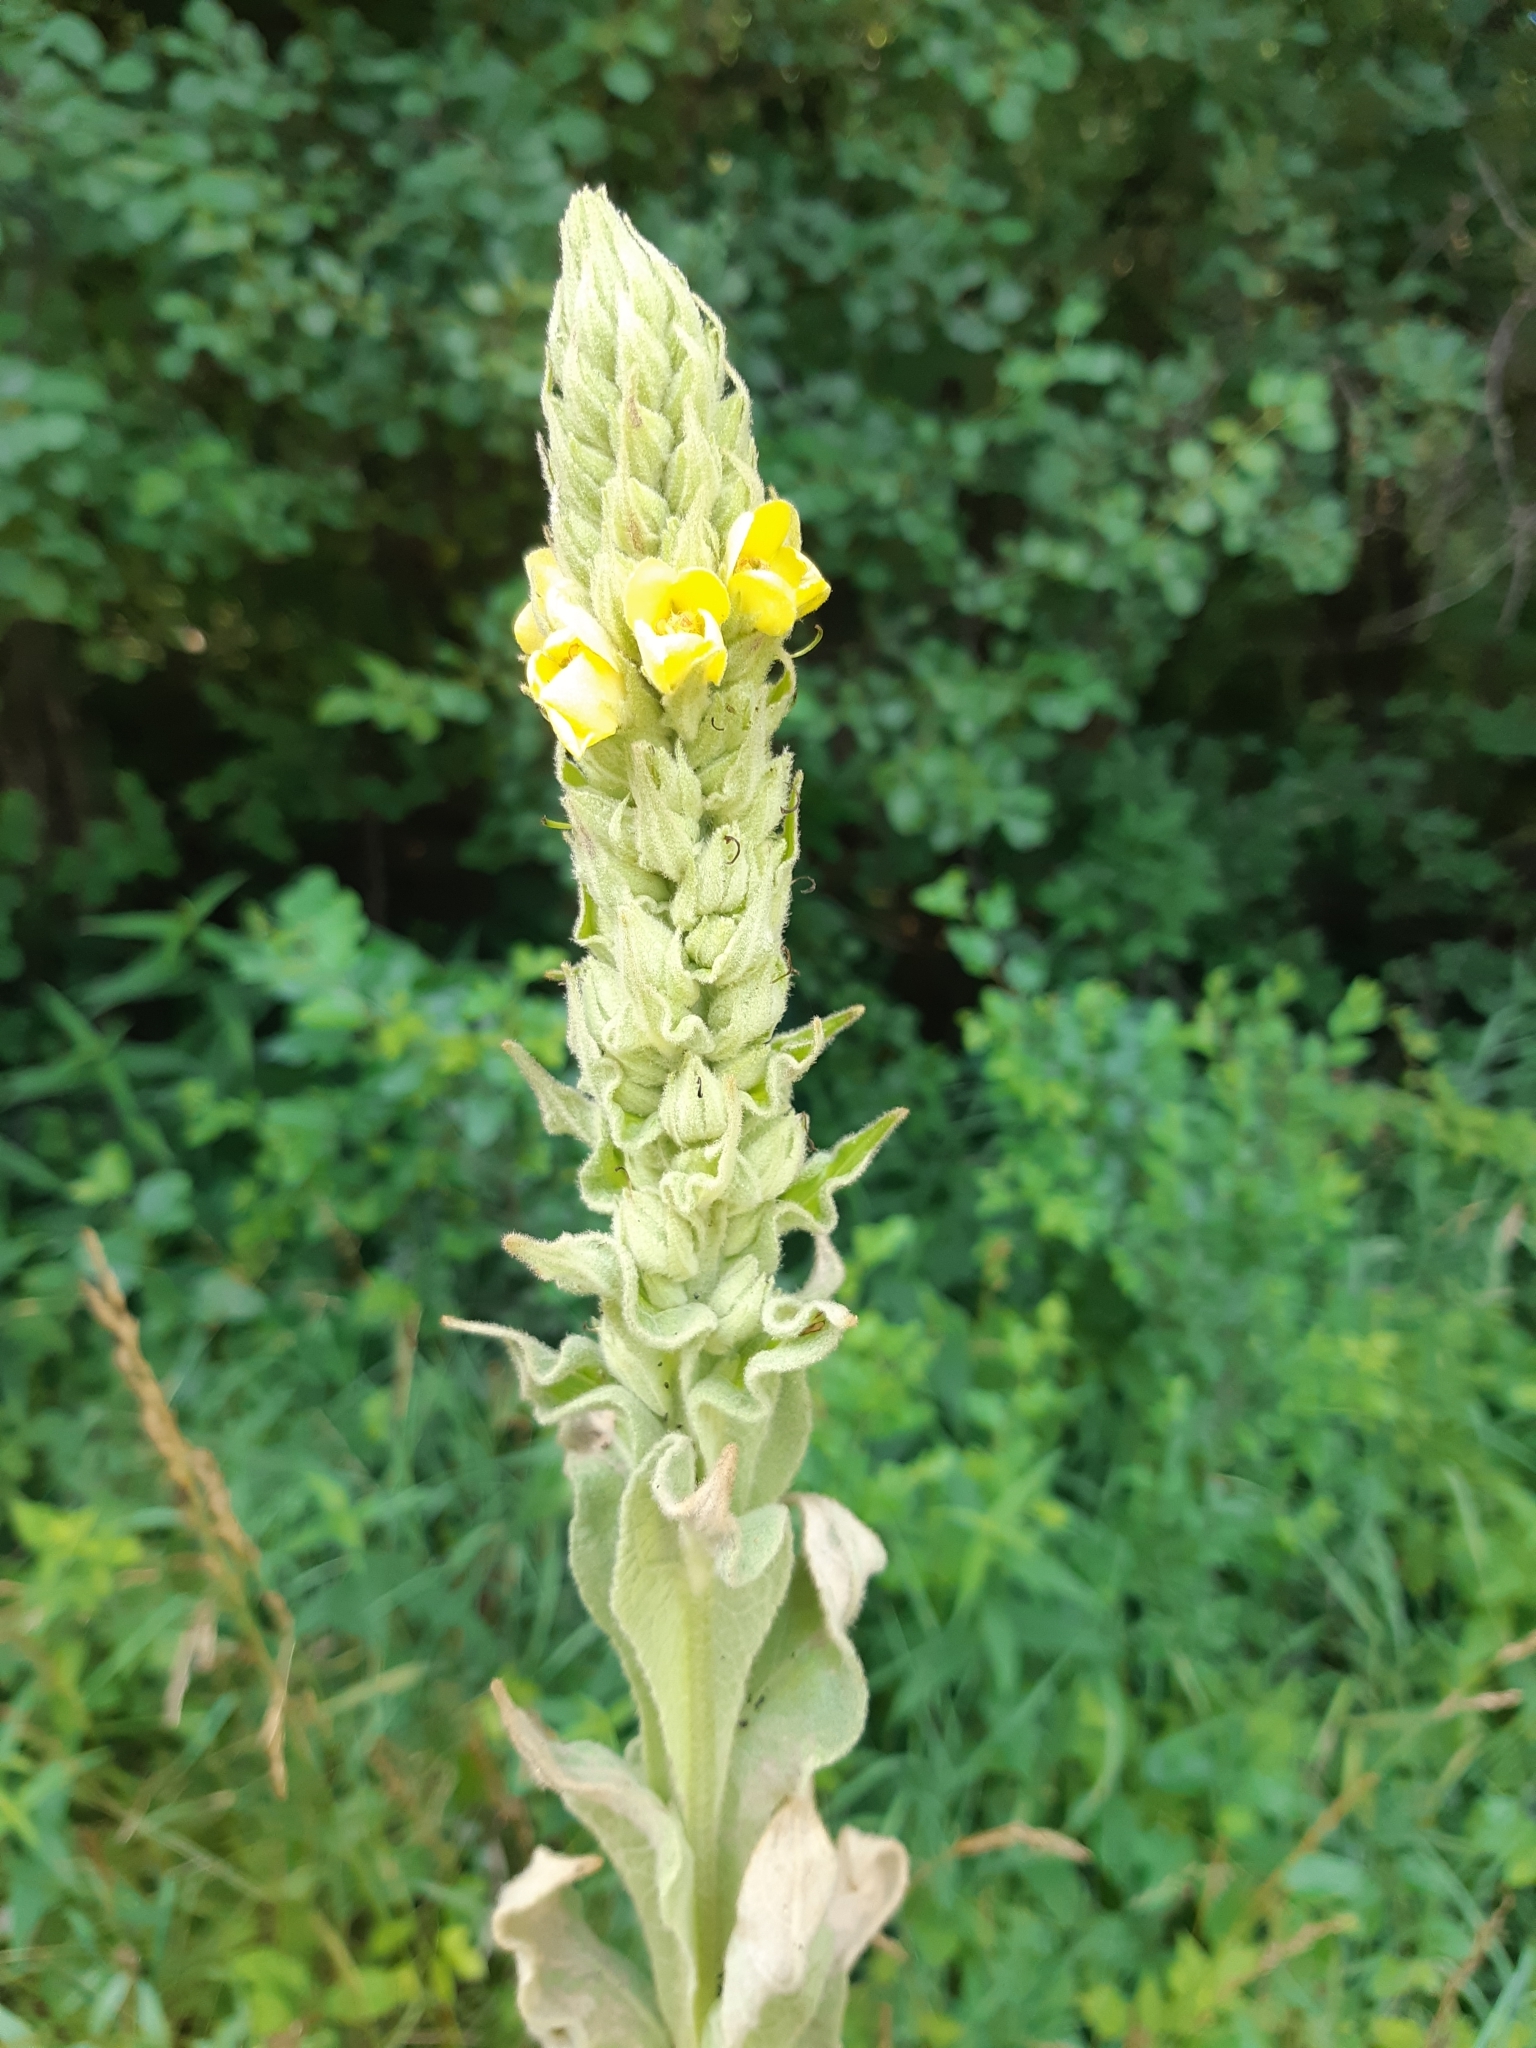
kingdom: Plantae
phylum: Tracheophyta
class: Magnoliopsida
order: Lamiales
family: Scrophulariaceae
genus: Verbascum
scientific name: Verbascum thapsus
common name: Common mullein
